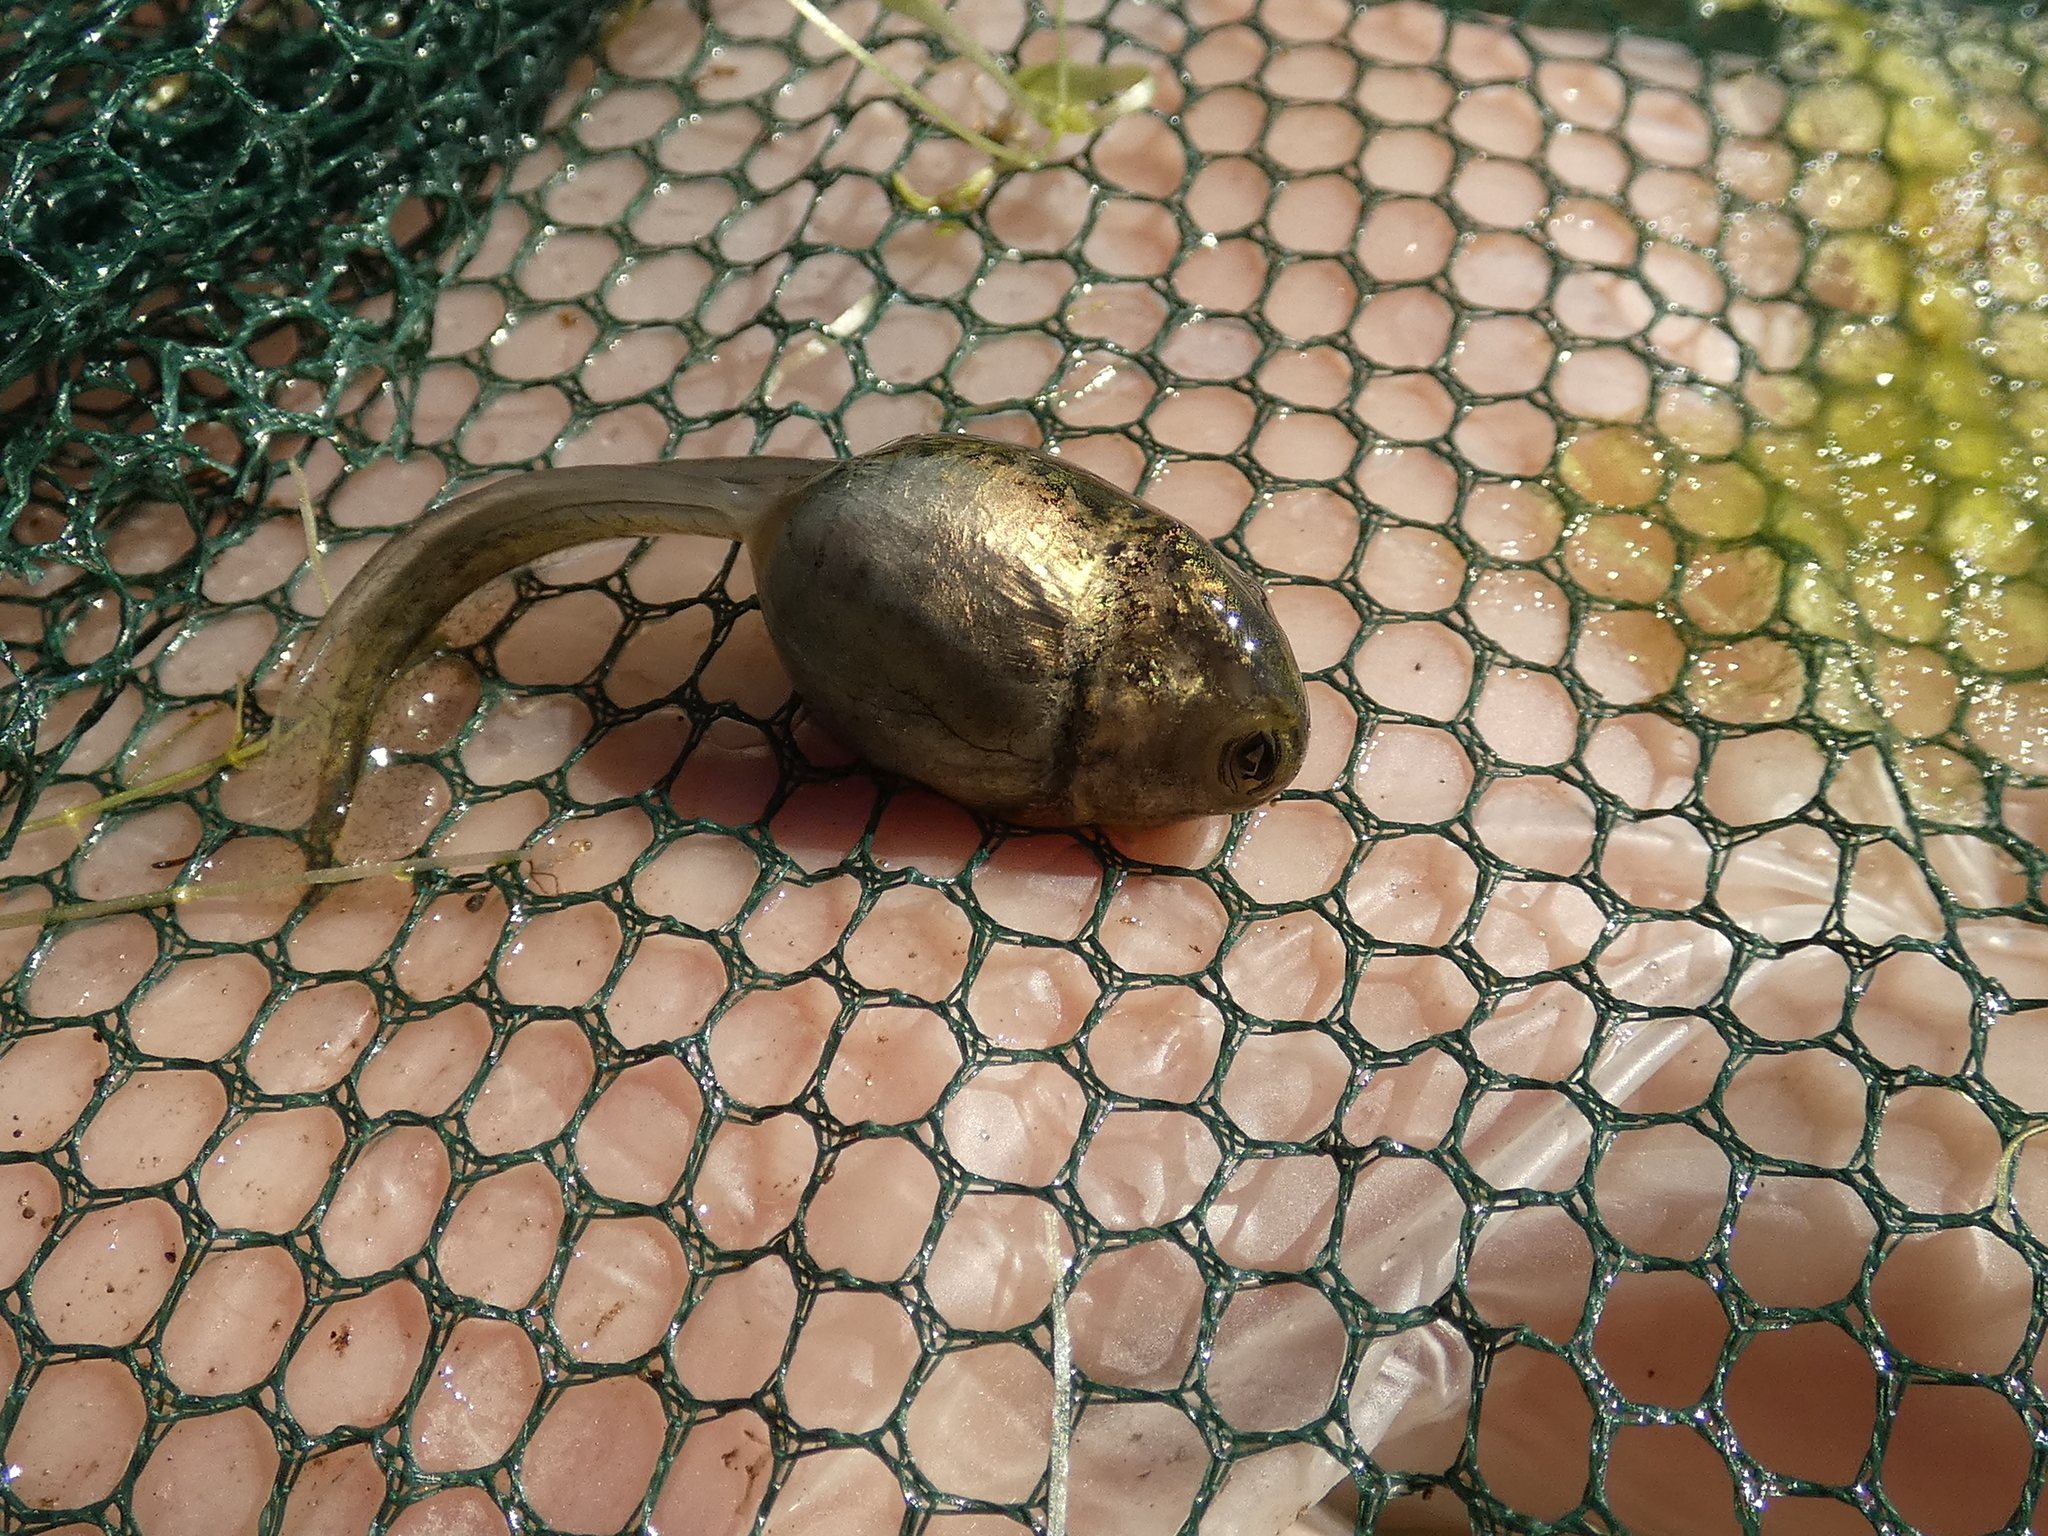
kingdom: Animalia
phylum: Chordata
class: Amphibia
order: Anura
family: Leptodactylidae
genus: Pleurodema
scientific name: Pleurodema thaul
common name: Chile four-eyed frog
